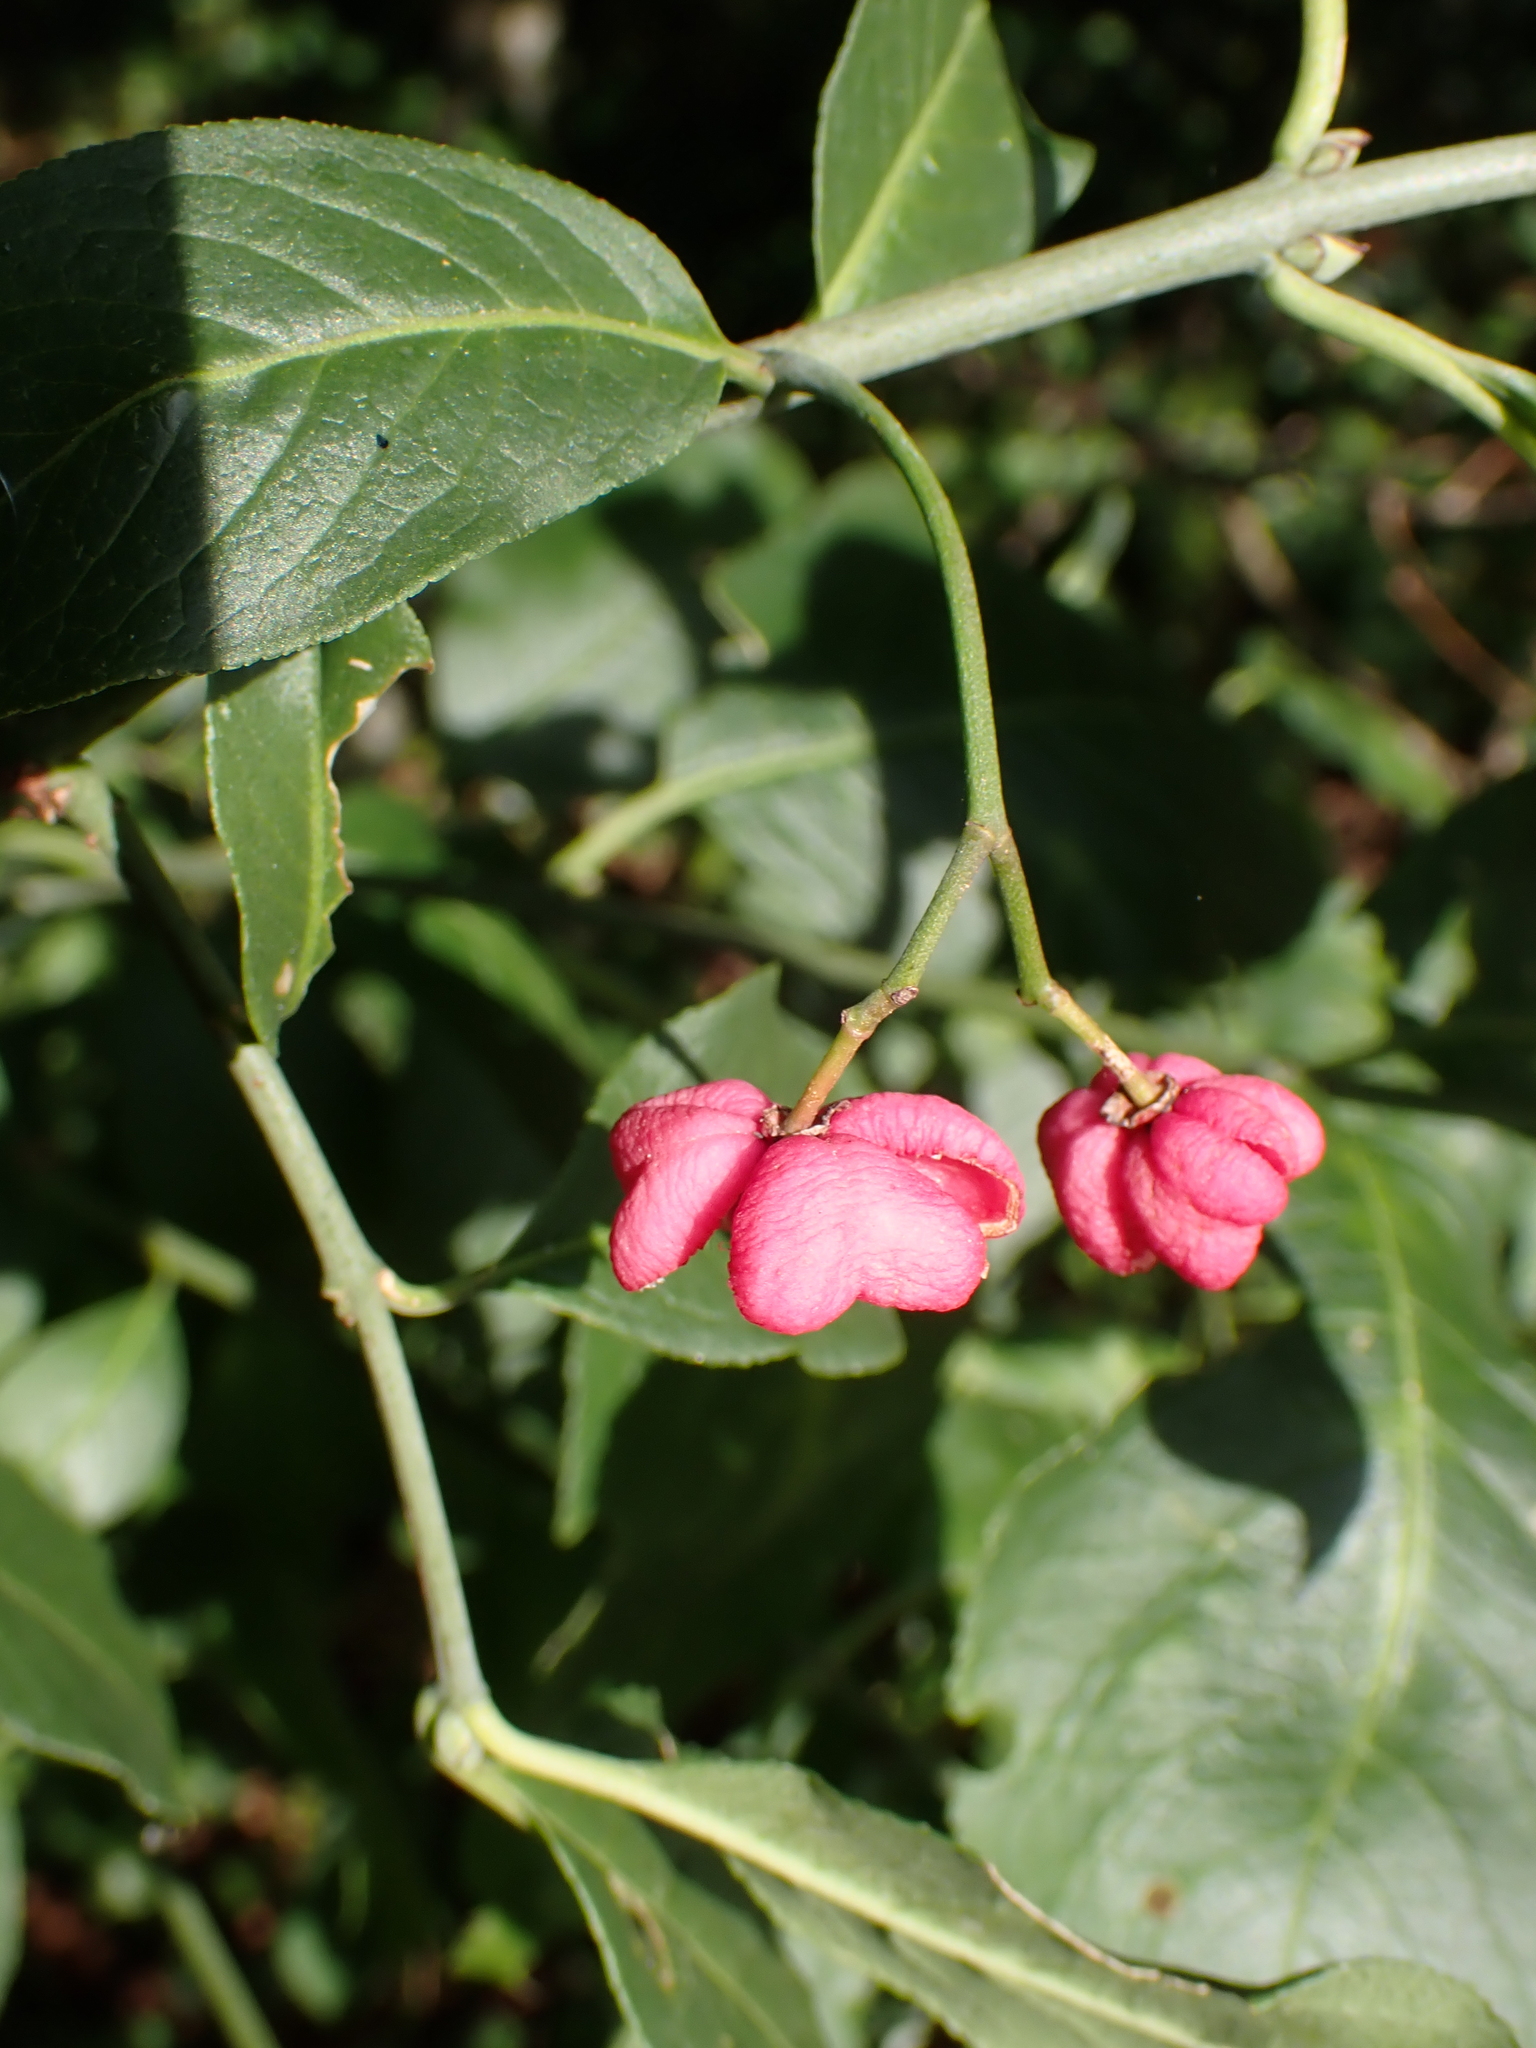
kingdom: Plantae
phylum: Tracheophyta
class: Magnoliopsida
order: Celastrales
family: Celastraceae
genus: Euonymus
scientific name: Euonymus europaeus
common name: Spindle
